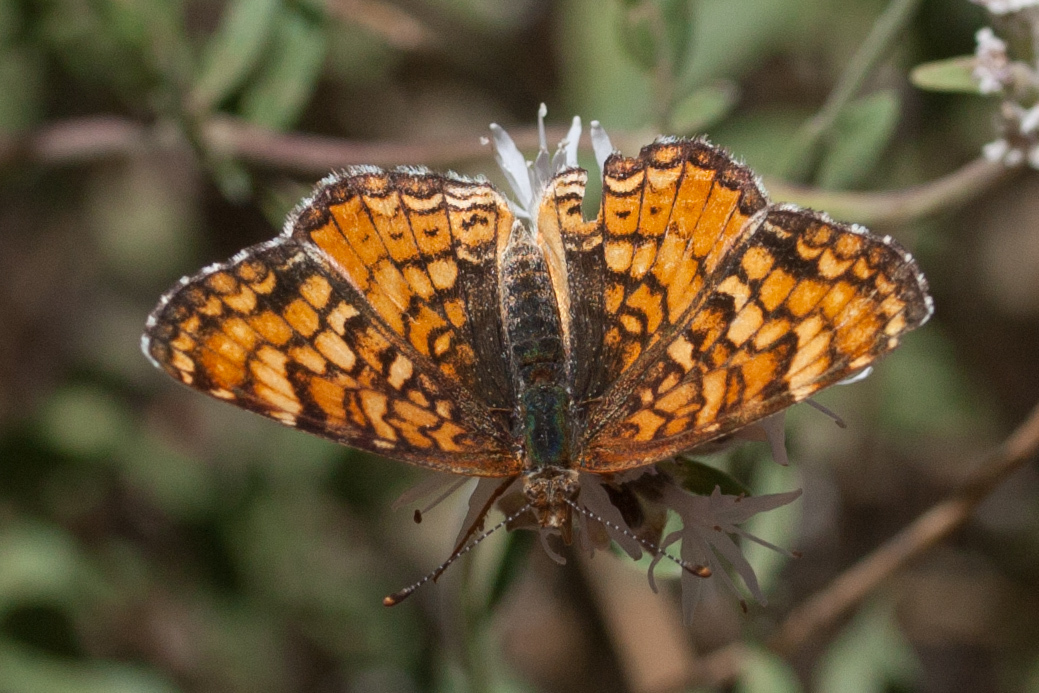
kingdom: Animalia
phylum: Arthropoda
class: Insecta
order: Lepidoptera
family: Nymphalidae
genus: Chlosyne
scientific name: Chlosyne palla
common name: Northern checkerspot
